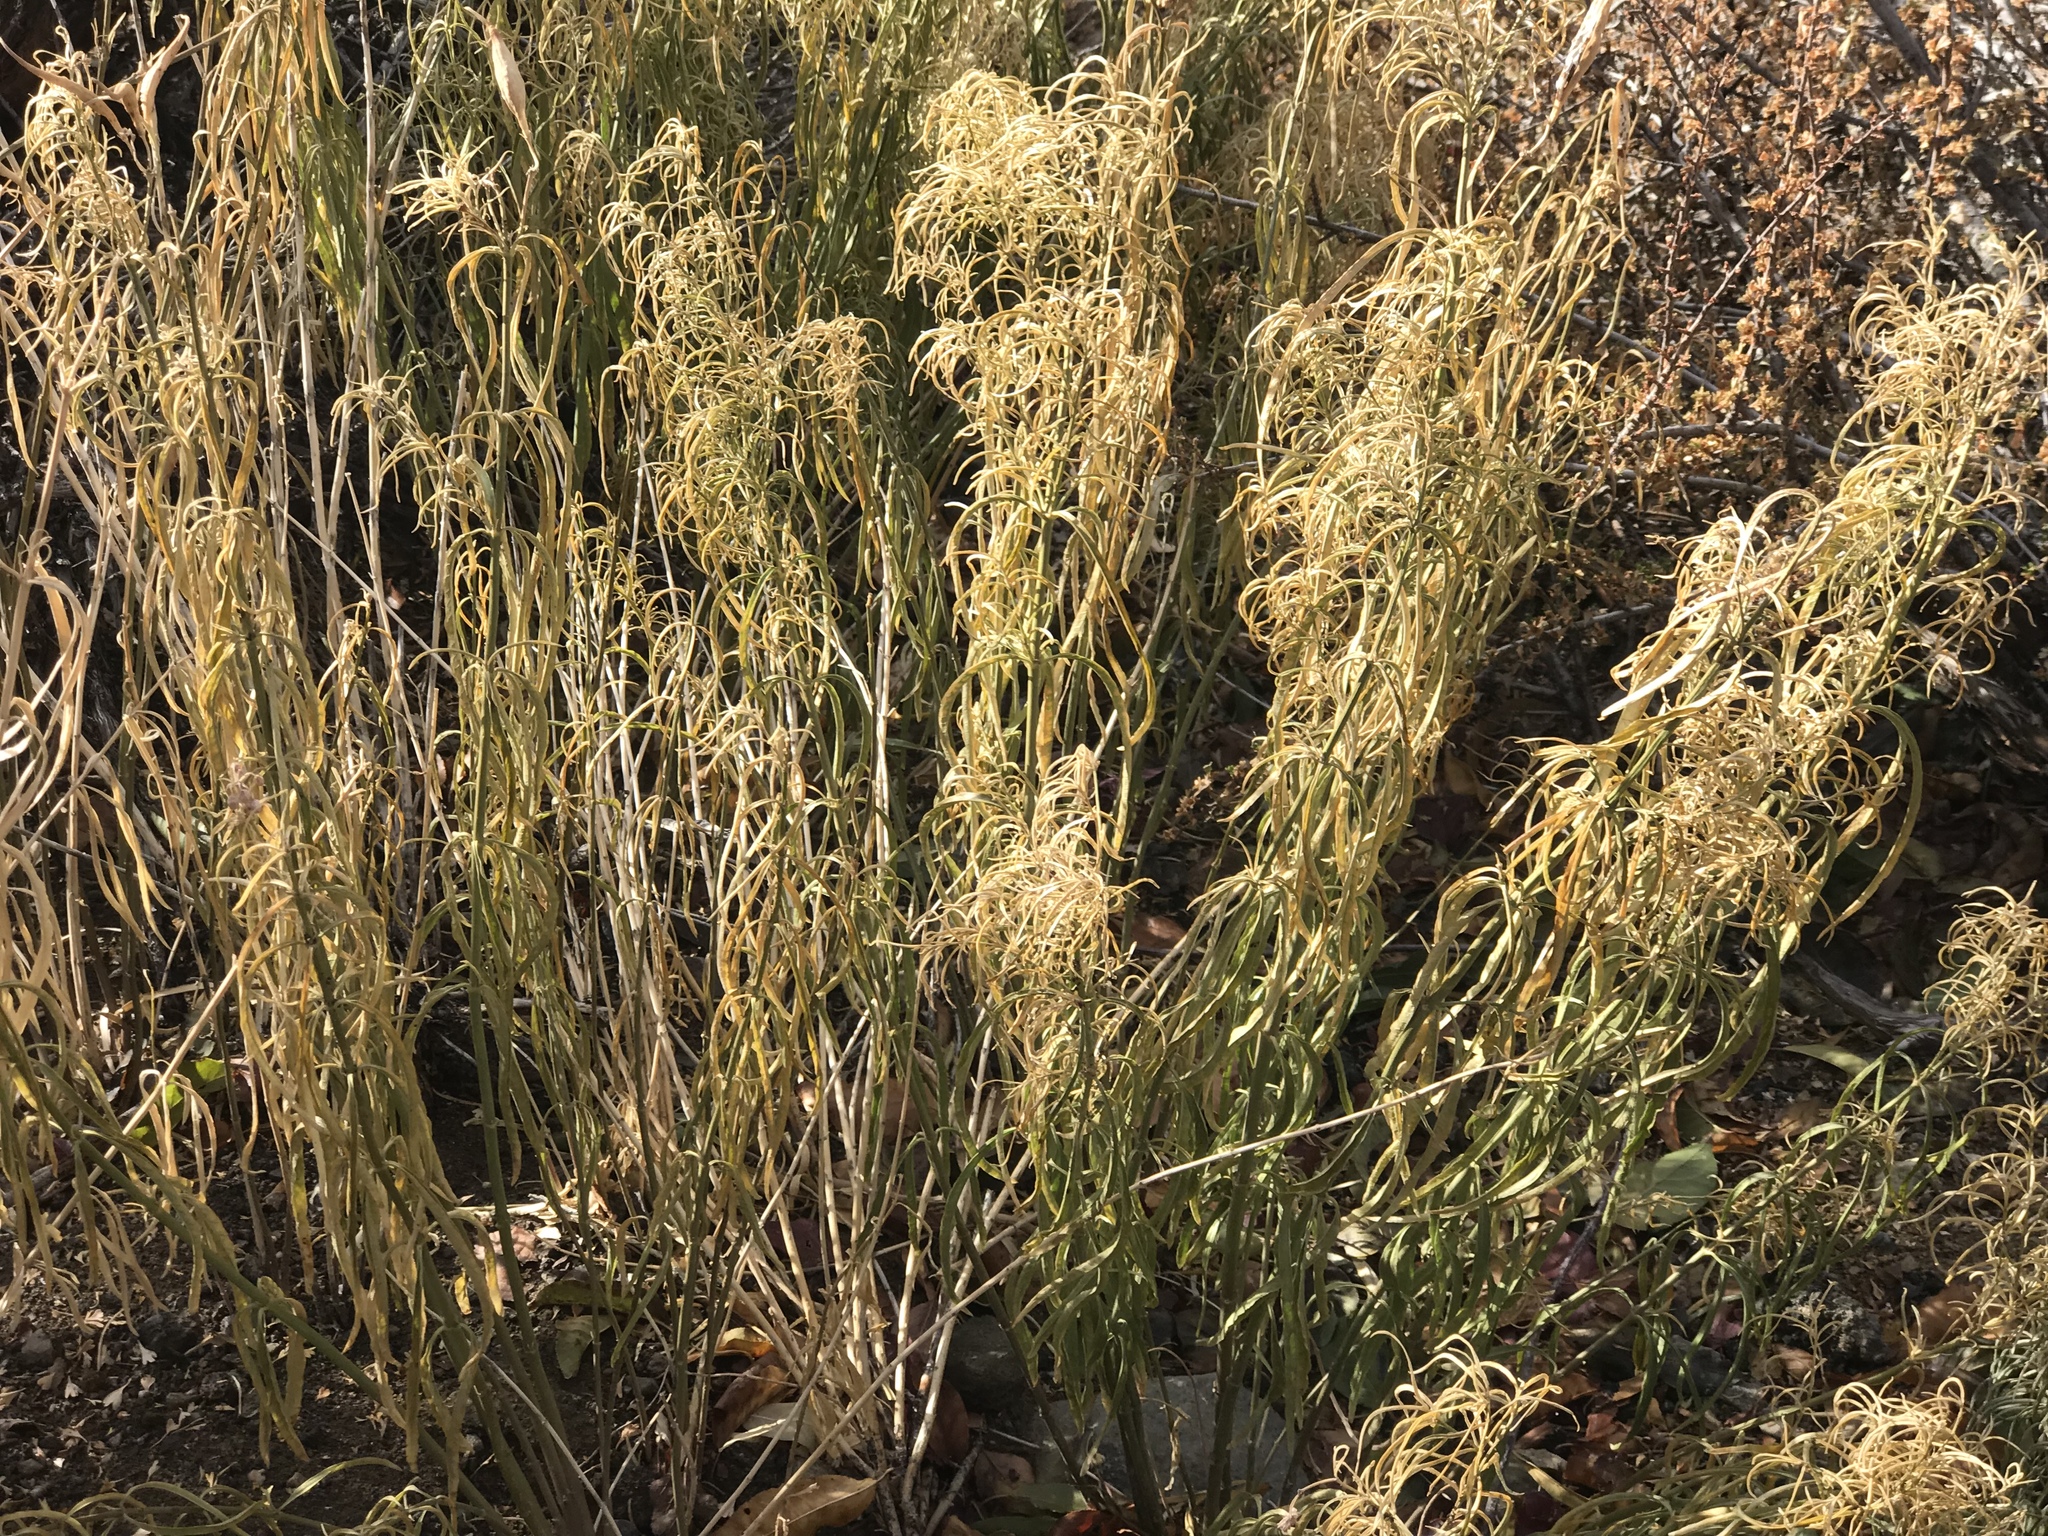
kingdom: Plantae
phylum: Tracheophyta
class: Magnoliopsida
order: Gentianales
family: Apocynaceae
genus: Asclepias
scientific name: Asclepias fascicularis
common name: Mexican milkweed
